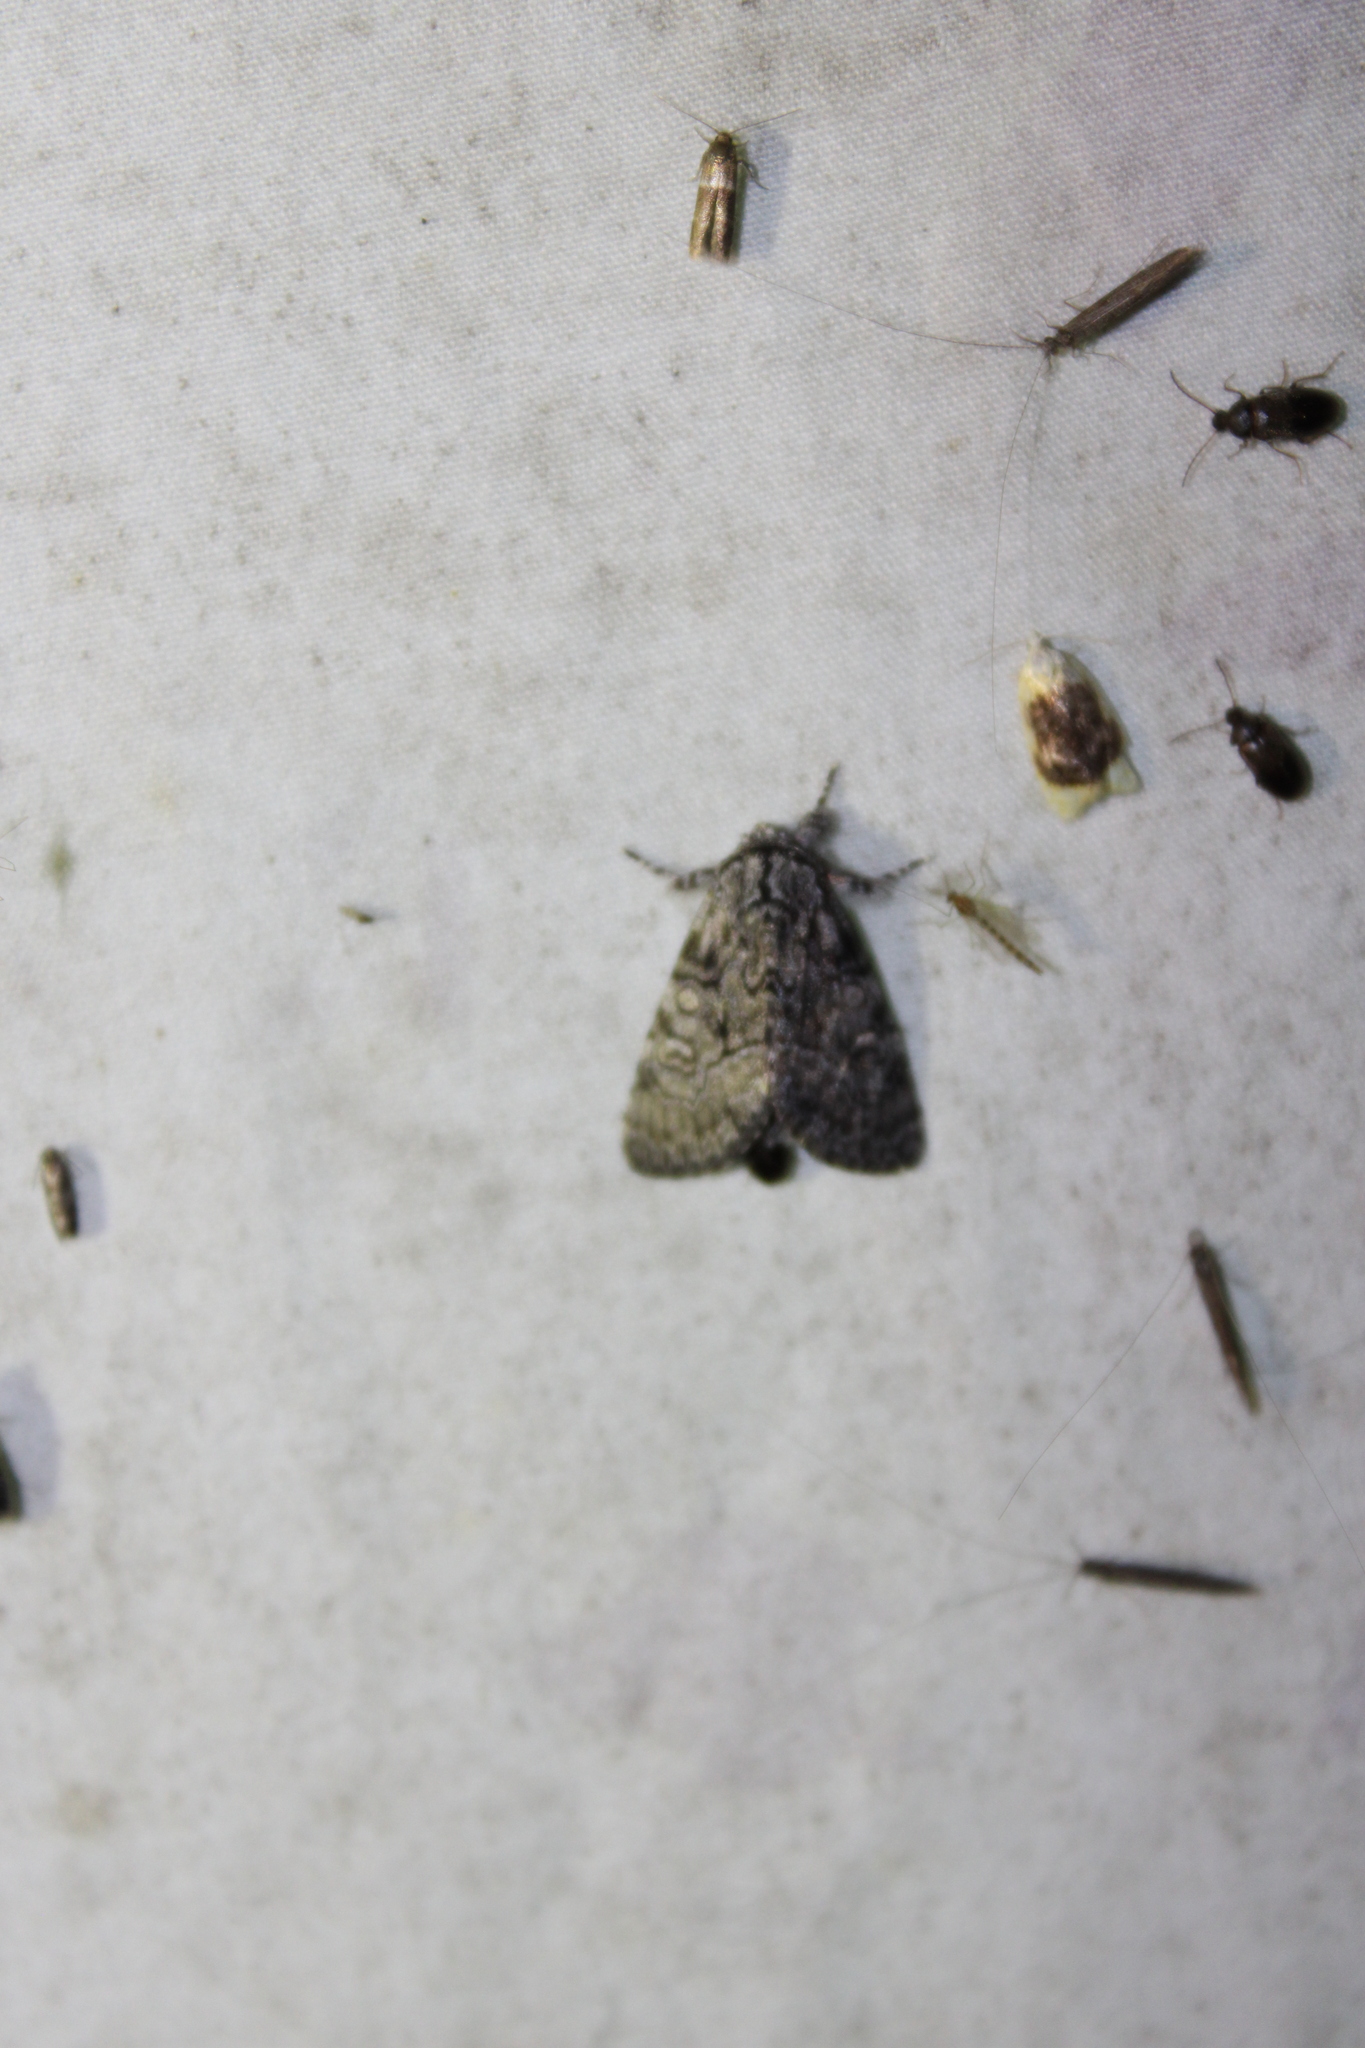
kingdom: Animalia
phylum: Arthropoda
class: Insecta
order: Lepidoptera
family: Noctuidae
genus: Raphia
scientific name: Raphia frater
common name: Brother
